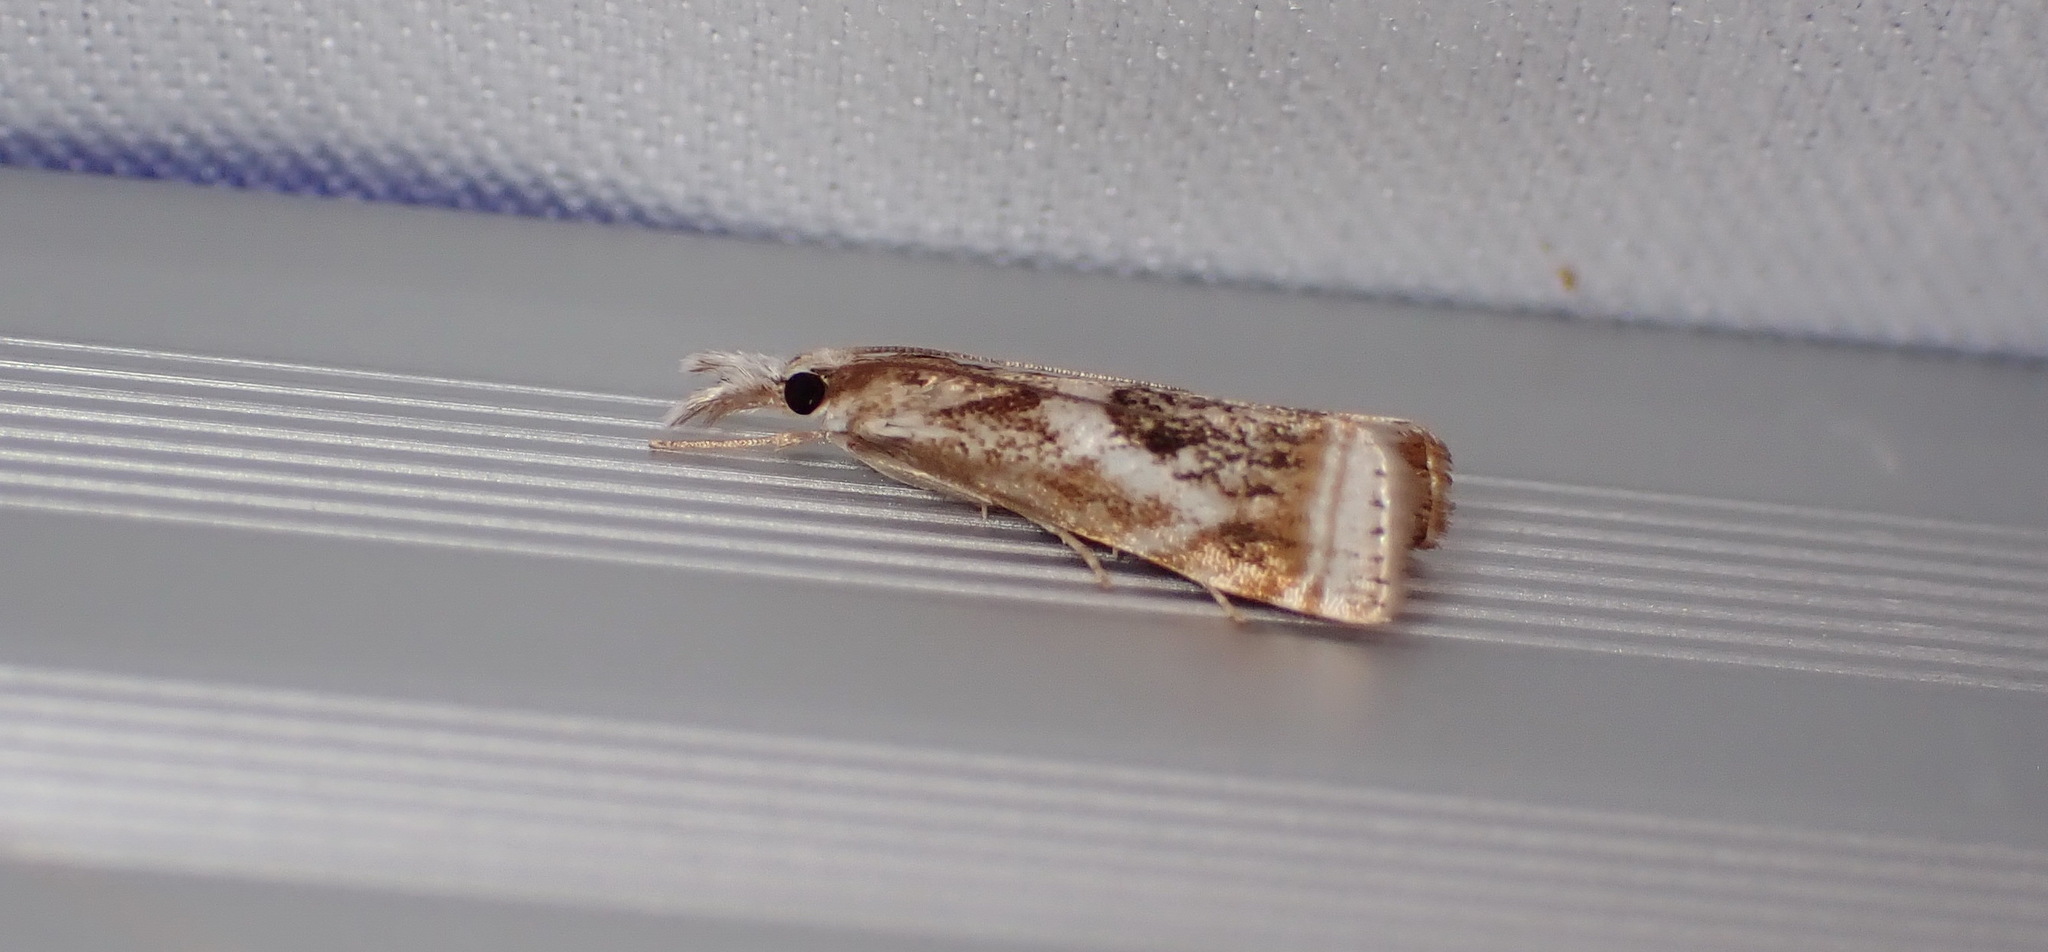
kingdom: Animalia
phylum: Arthropoda
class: Insecta
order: Lepidoptera
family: Crambidae
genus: Microcrambus
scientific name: Microcrambus elegans
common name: Elegant grass-veneer
